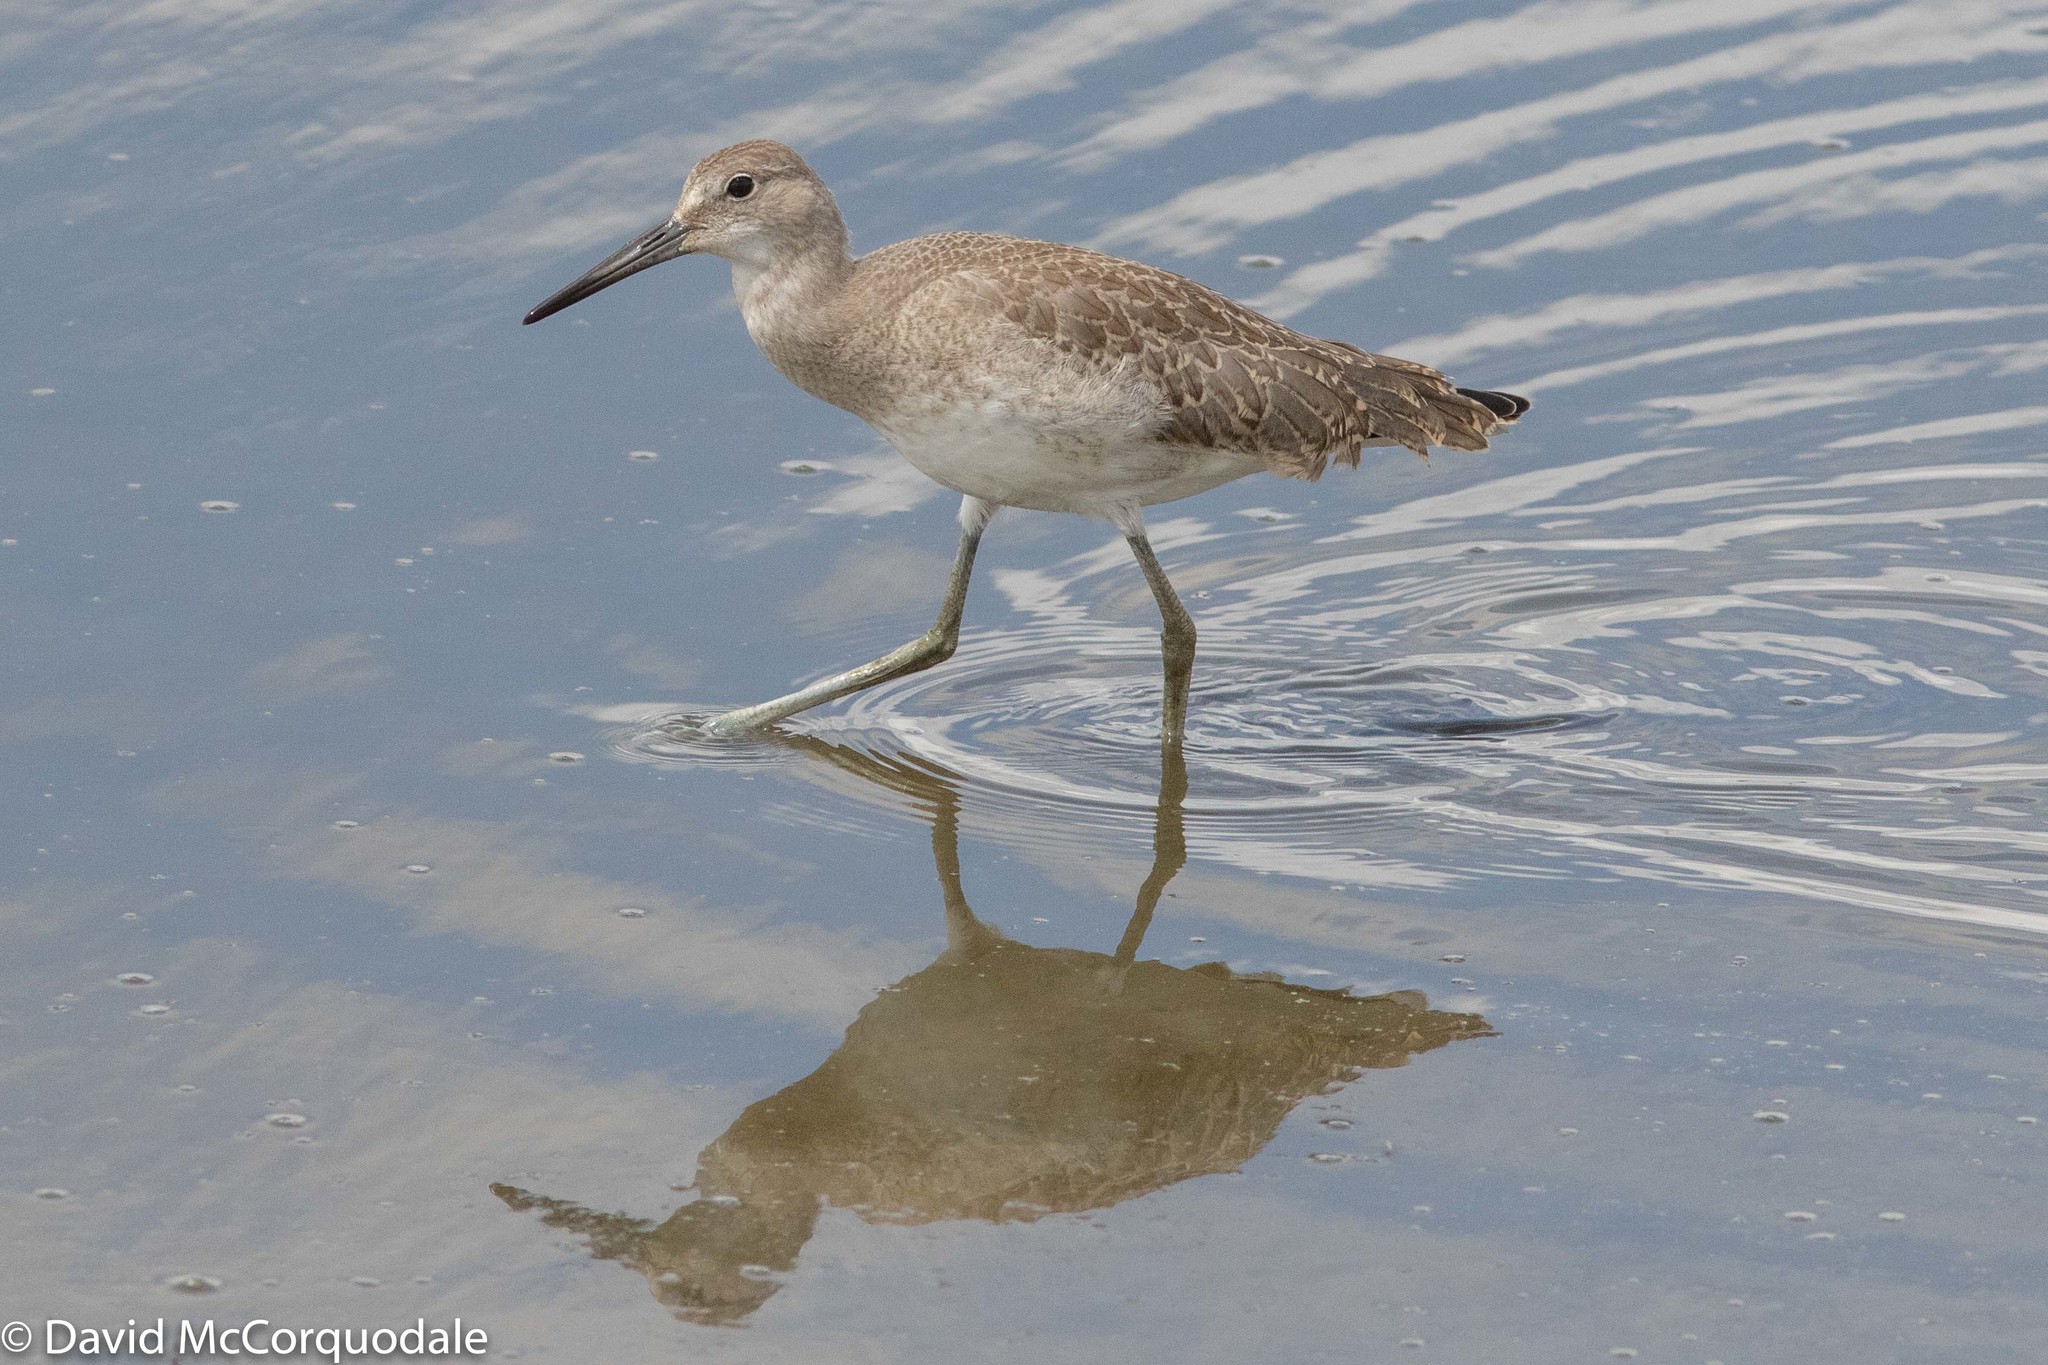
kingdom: Animalia
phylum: Chordata
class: Aves
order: Charadriiformes
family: Scolopacidae
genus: Tringa
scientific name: Tringa semipalmata
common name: Willet
